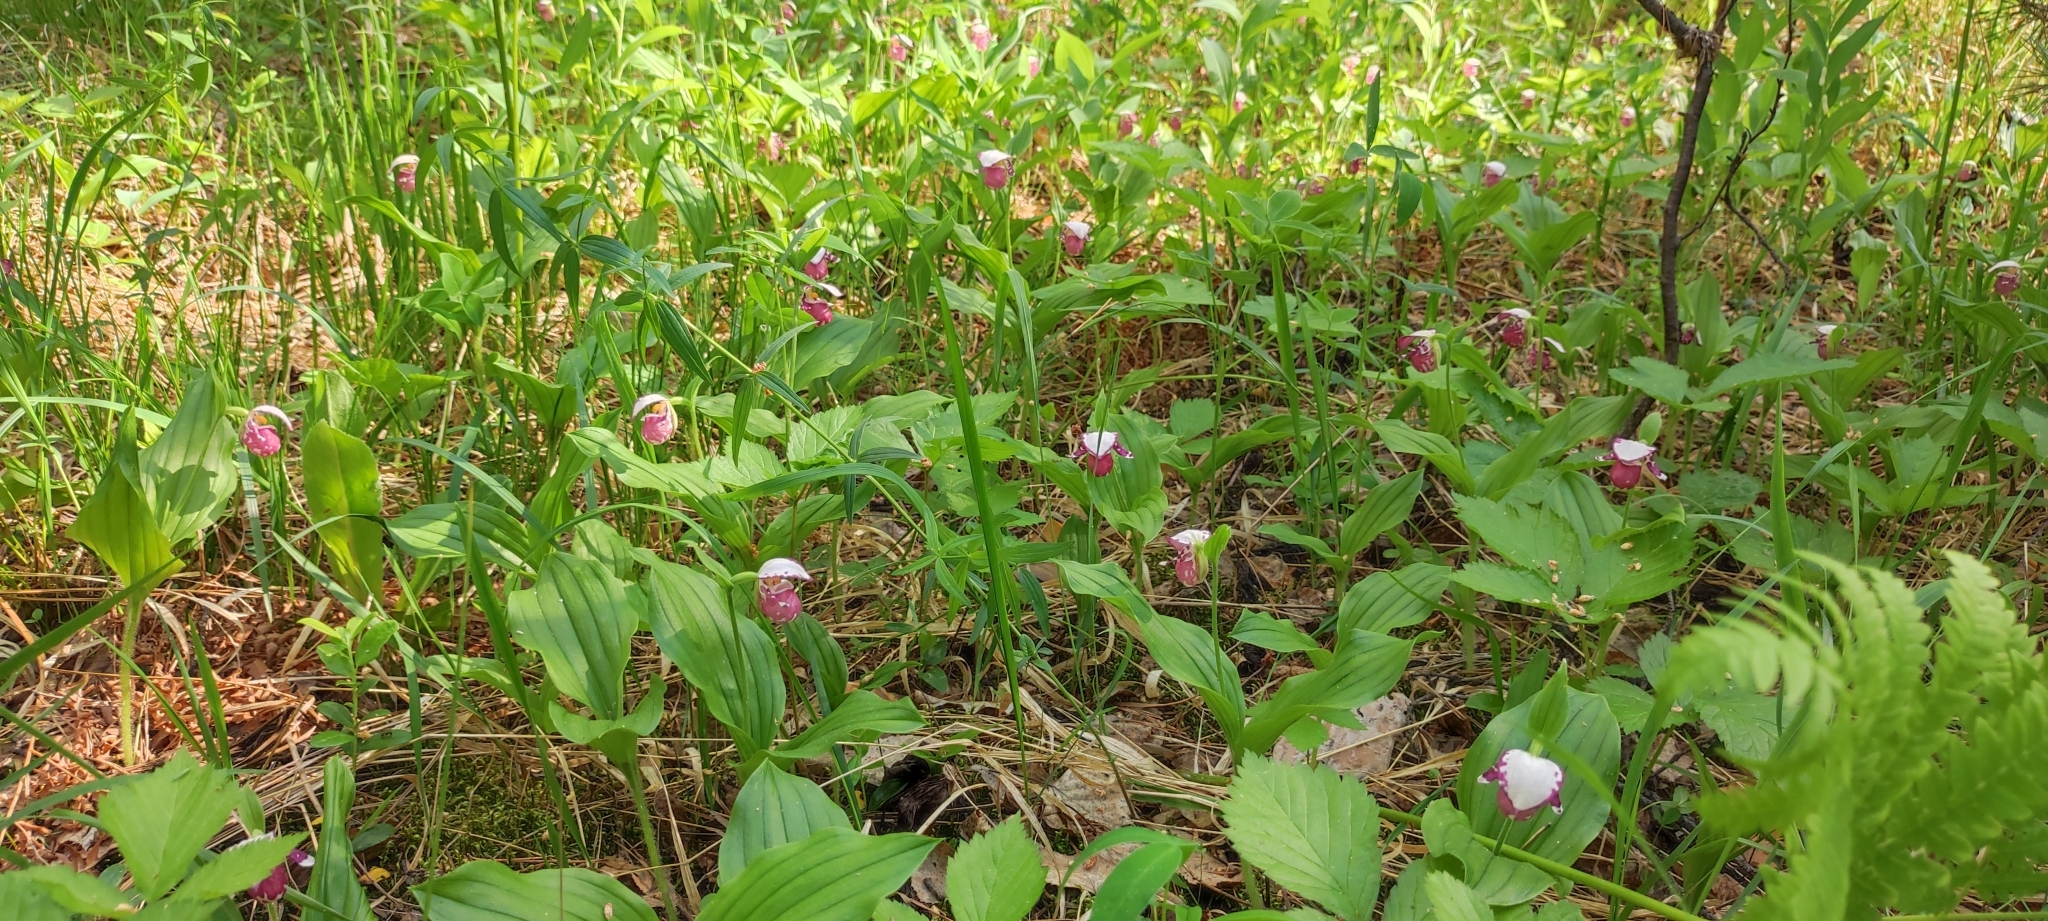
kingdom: Plantae
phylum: Tracheophyta
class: Liliopsida
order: Asparagales
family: Orchidaceae
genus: Cypripedium
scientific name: Cypripedium guttatum
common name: Pink lady slipper
